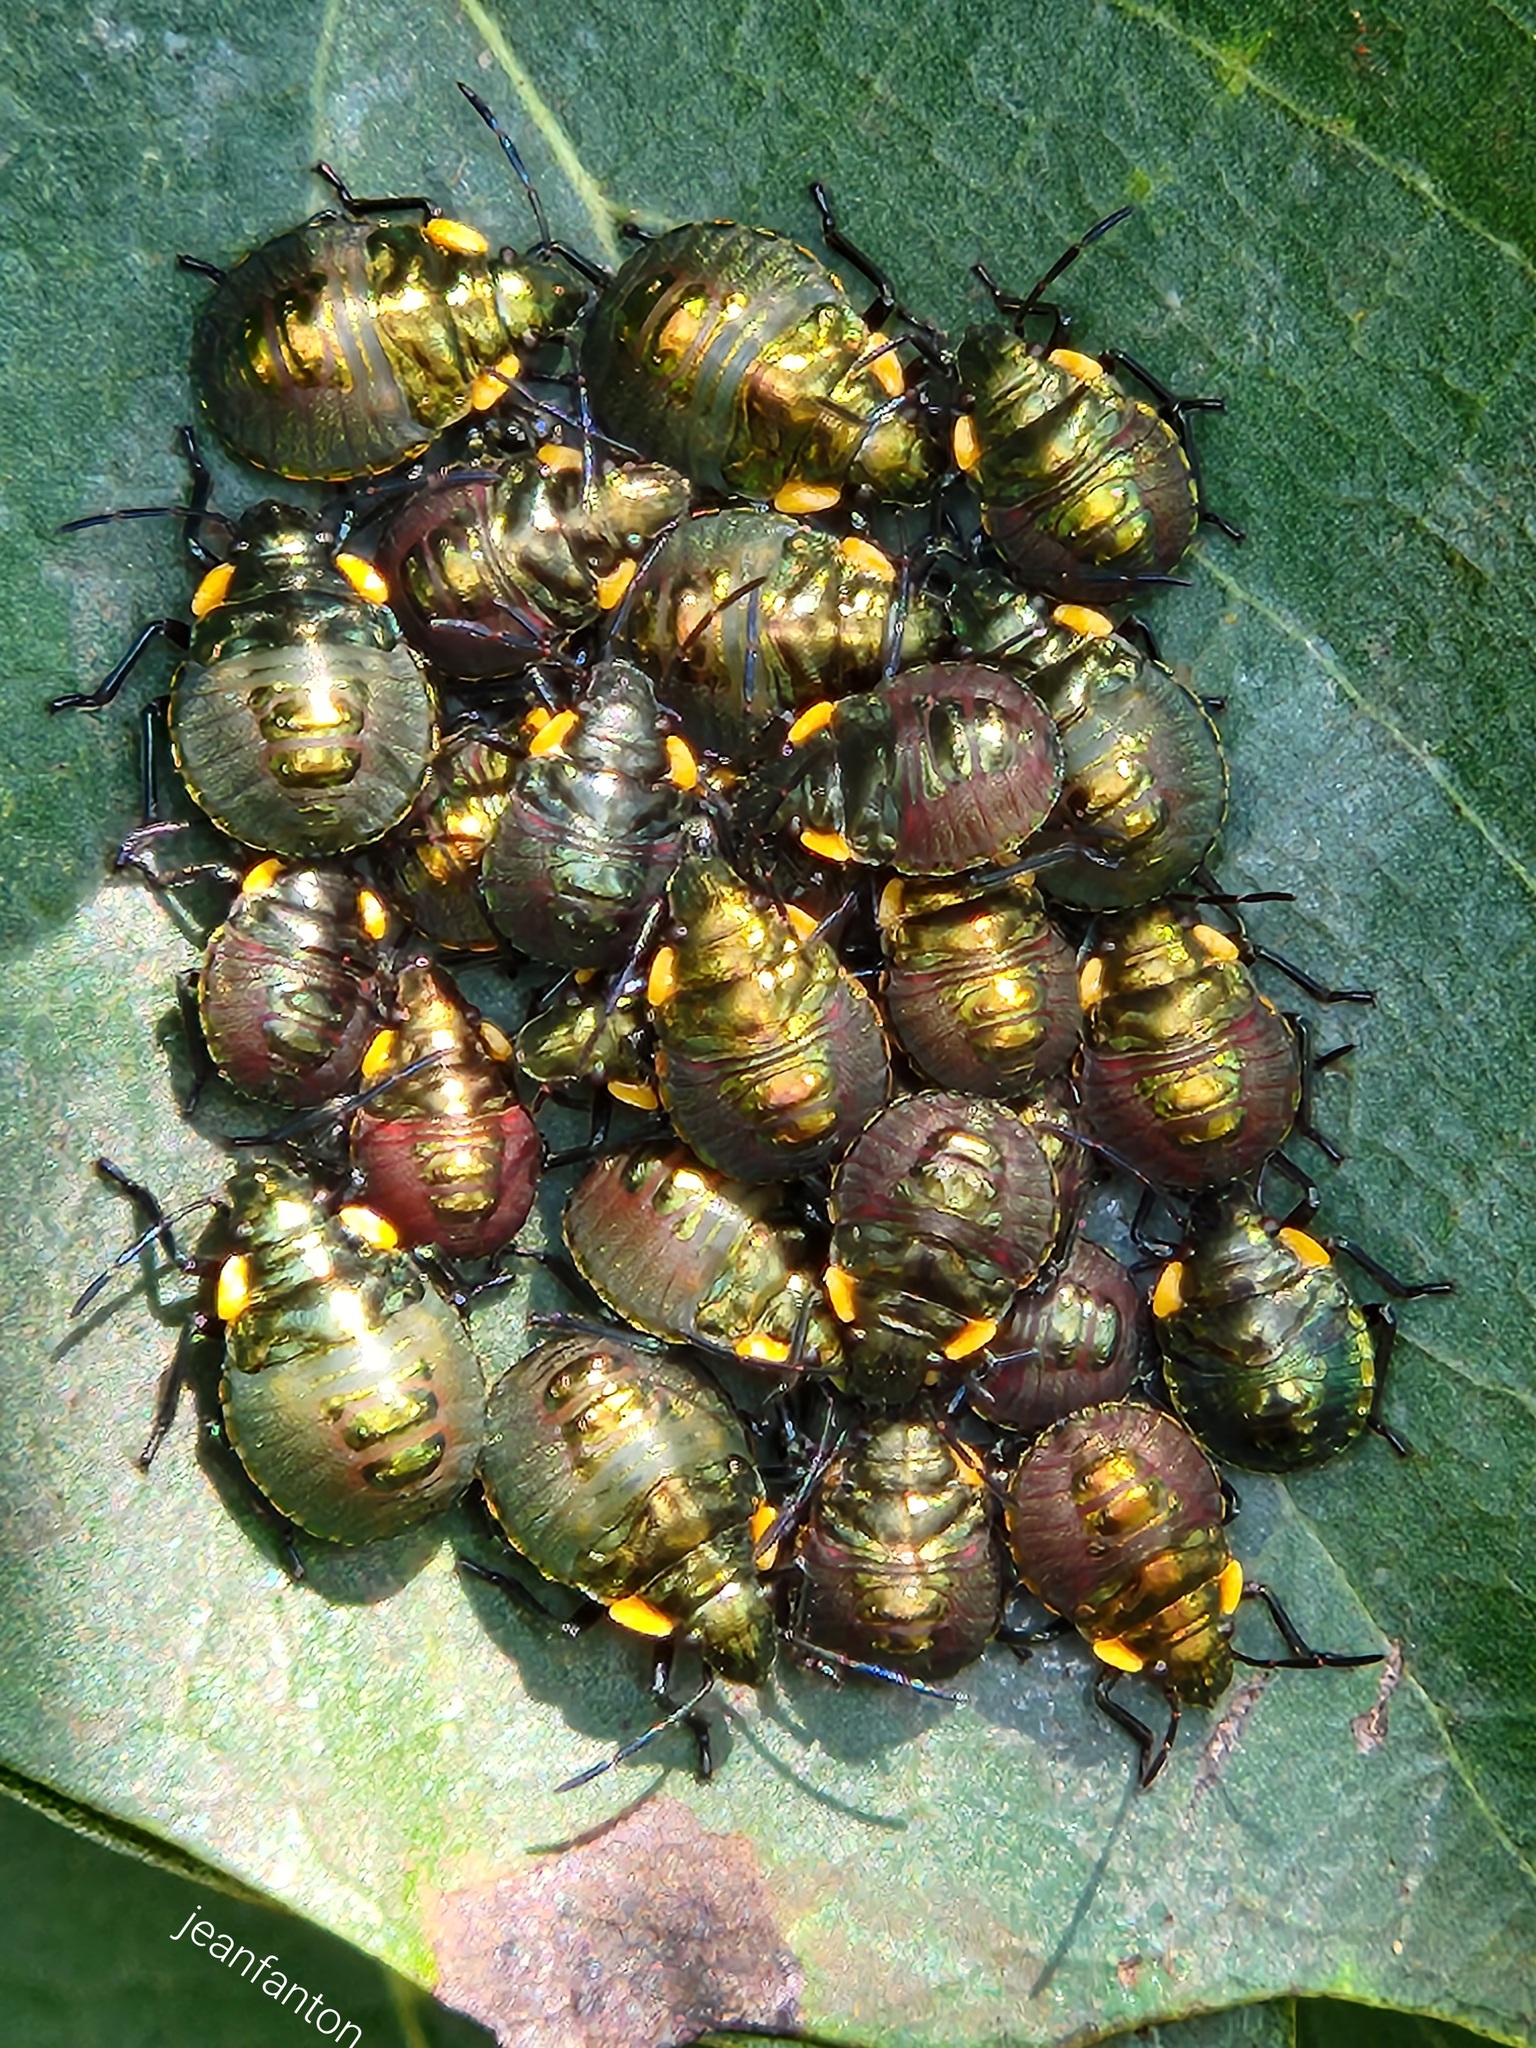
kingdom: Animalia
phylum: Arthropoda
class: Insecta
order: Hemiptera
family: Scutelleridae
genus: Pachycoris
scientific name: Pachycoris torridus
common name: Torrid jewel bug
